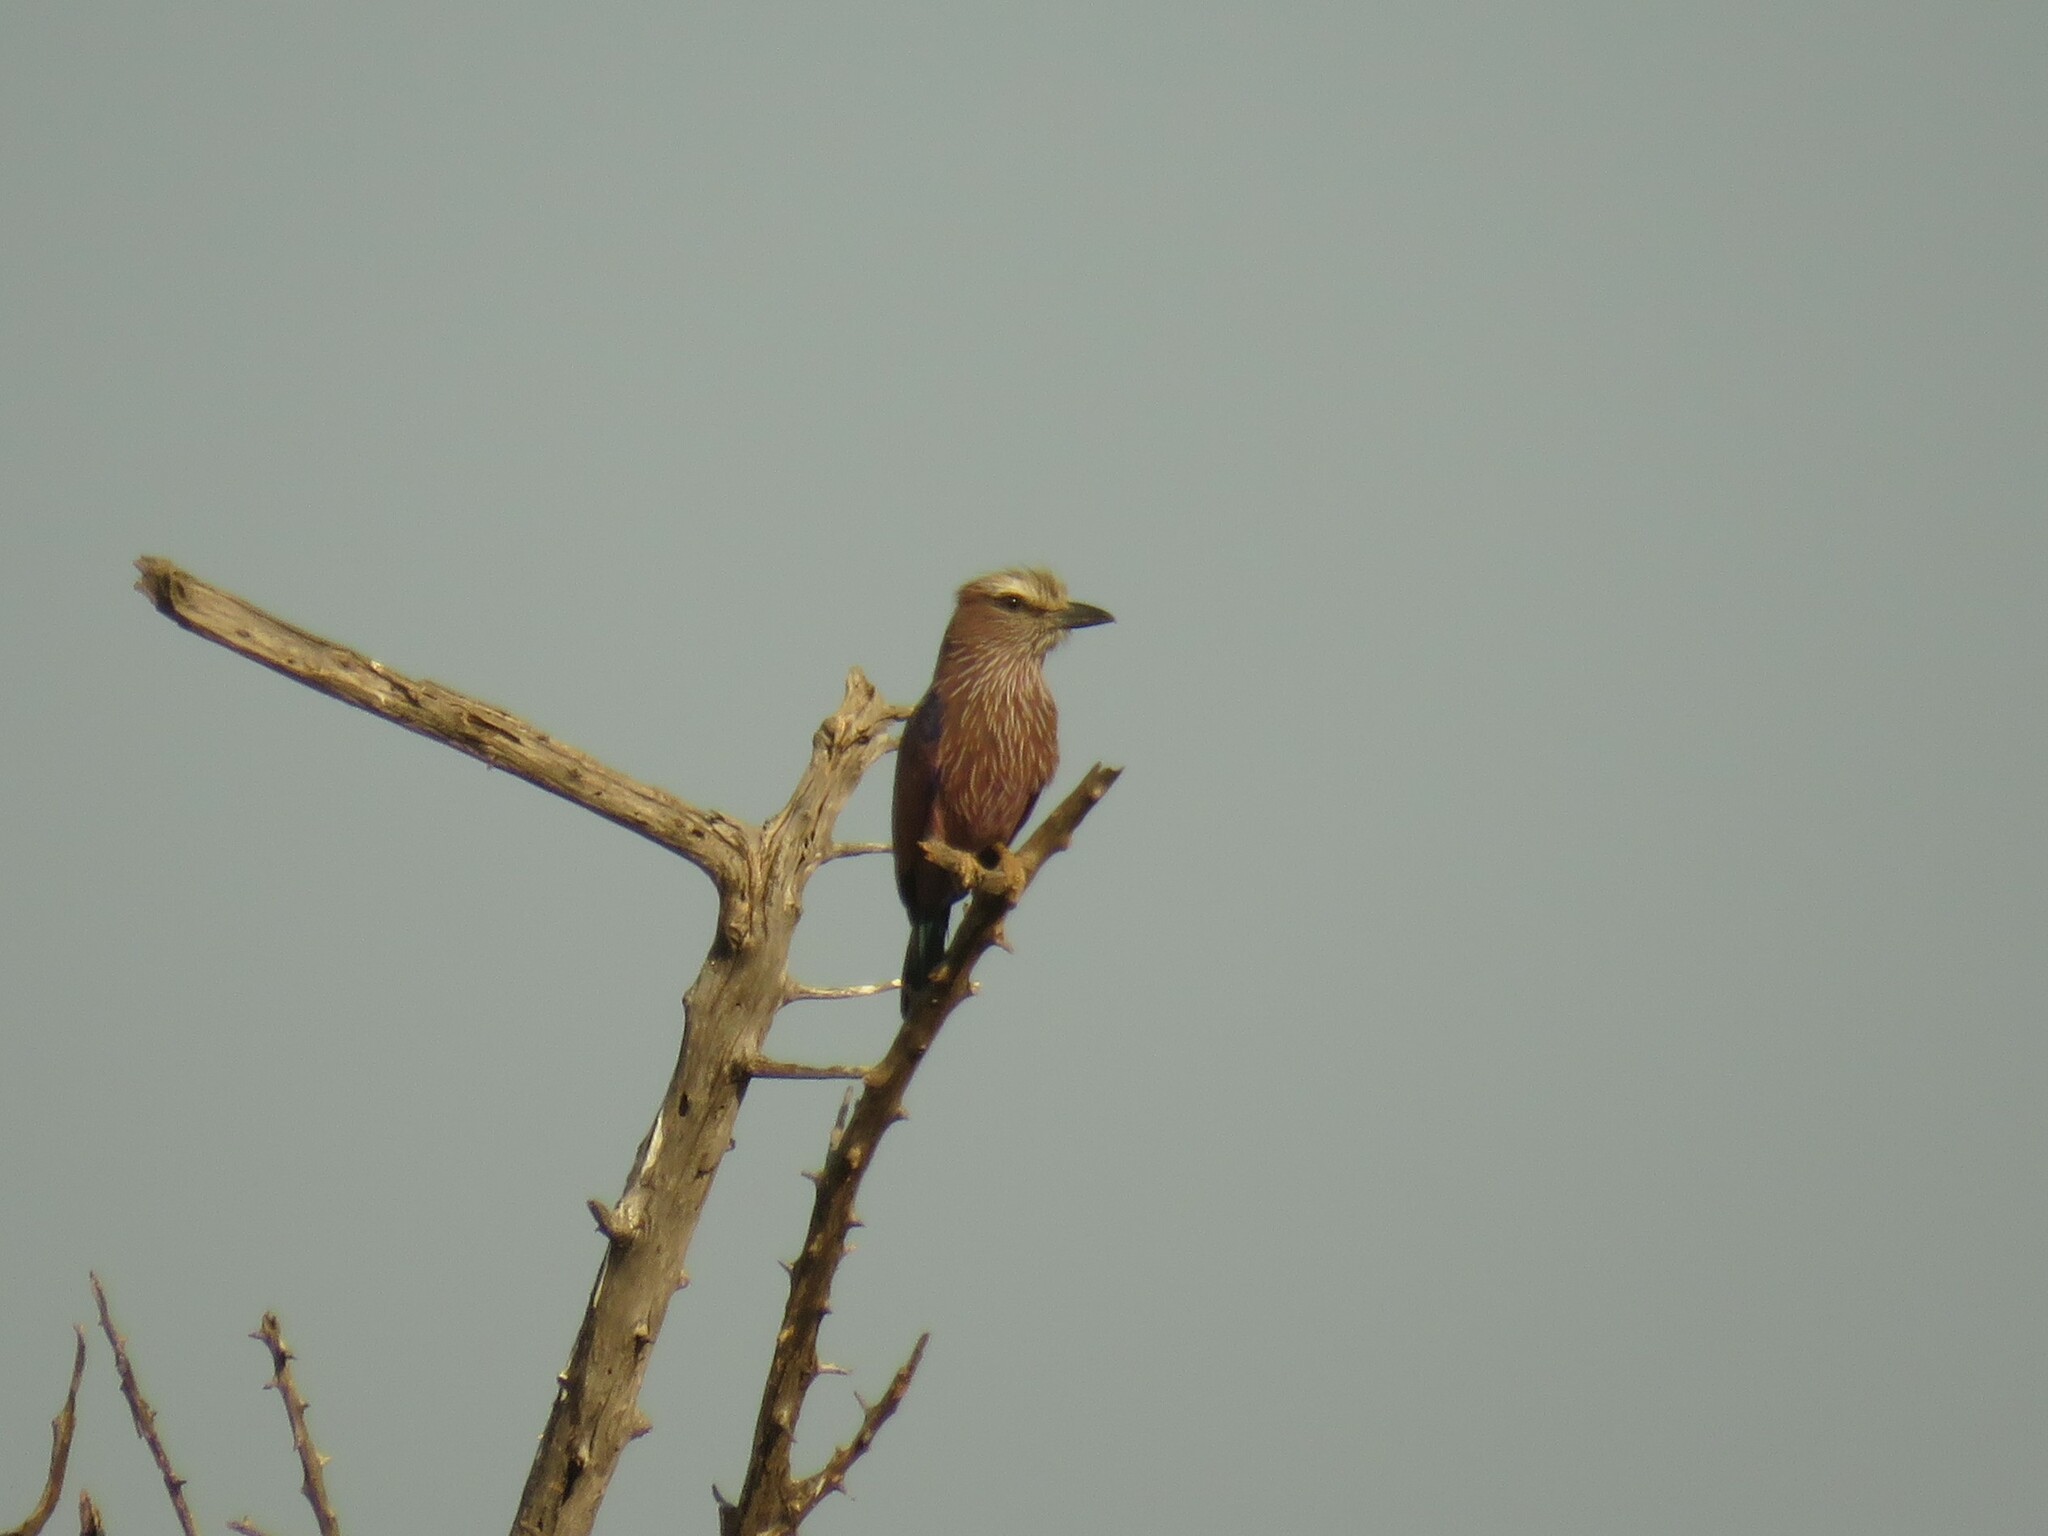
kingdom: Animalia
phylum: Chordata
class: Aves
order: Coraciiformes
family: Coraciidae
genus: Coracias
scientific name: Coracias naevius
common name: Purple roller
